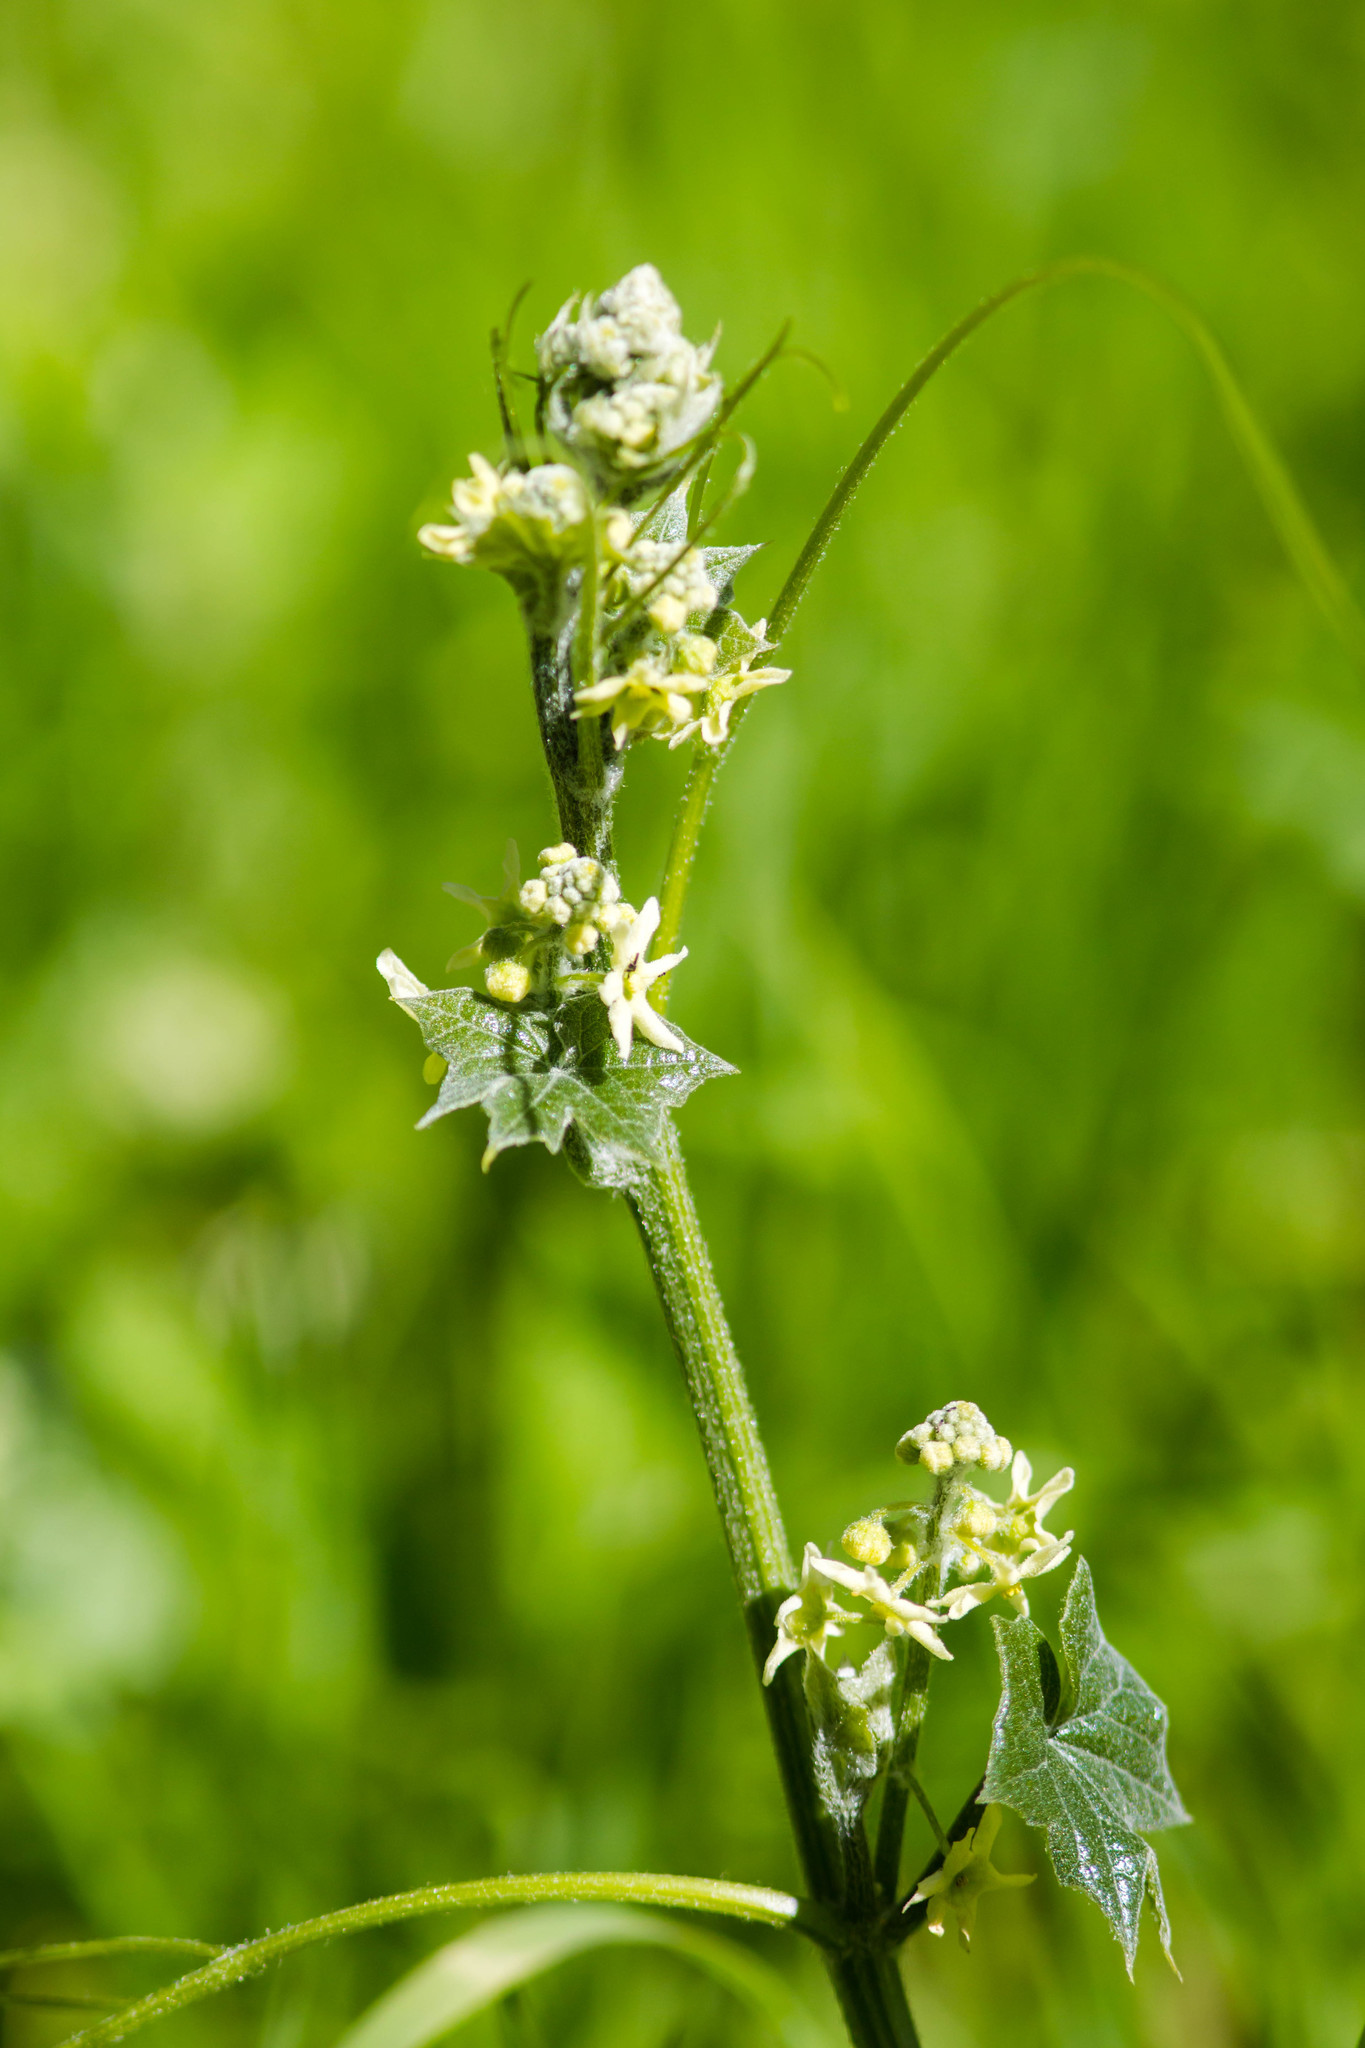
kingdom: Plantae
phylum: Tracheophyta
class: Magnoliopsida
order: Cucurbitales
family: Cucurbitaceae
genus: Marah
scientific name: Marah fabacea
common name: California manroot
